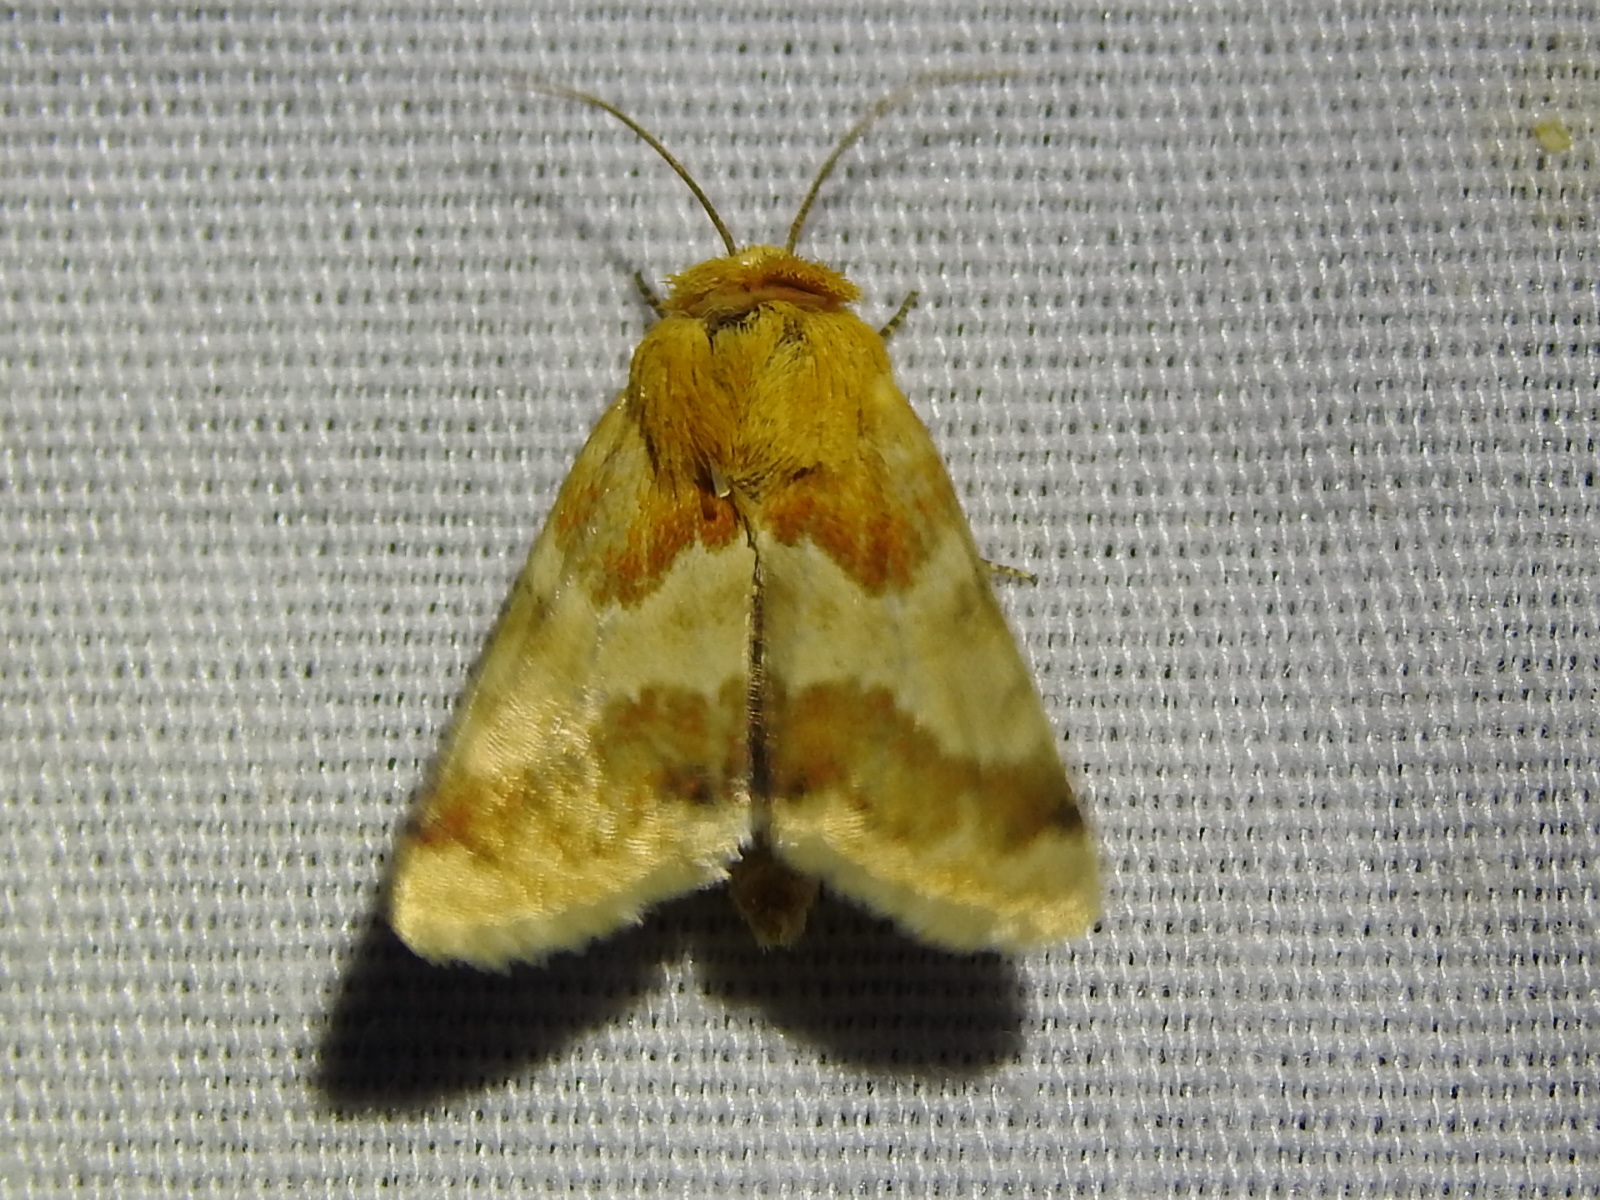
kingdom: Animalia
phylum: Arthropoda
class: Insecta
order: Lepidoptera
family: Noctuidae
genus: Schinia
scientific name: Schinia siren
